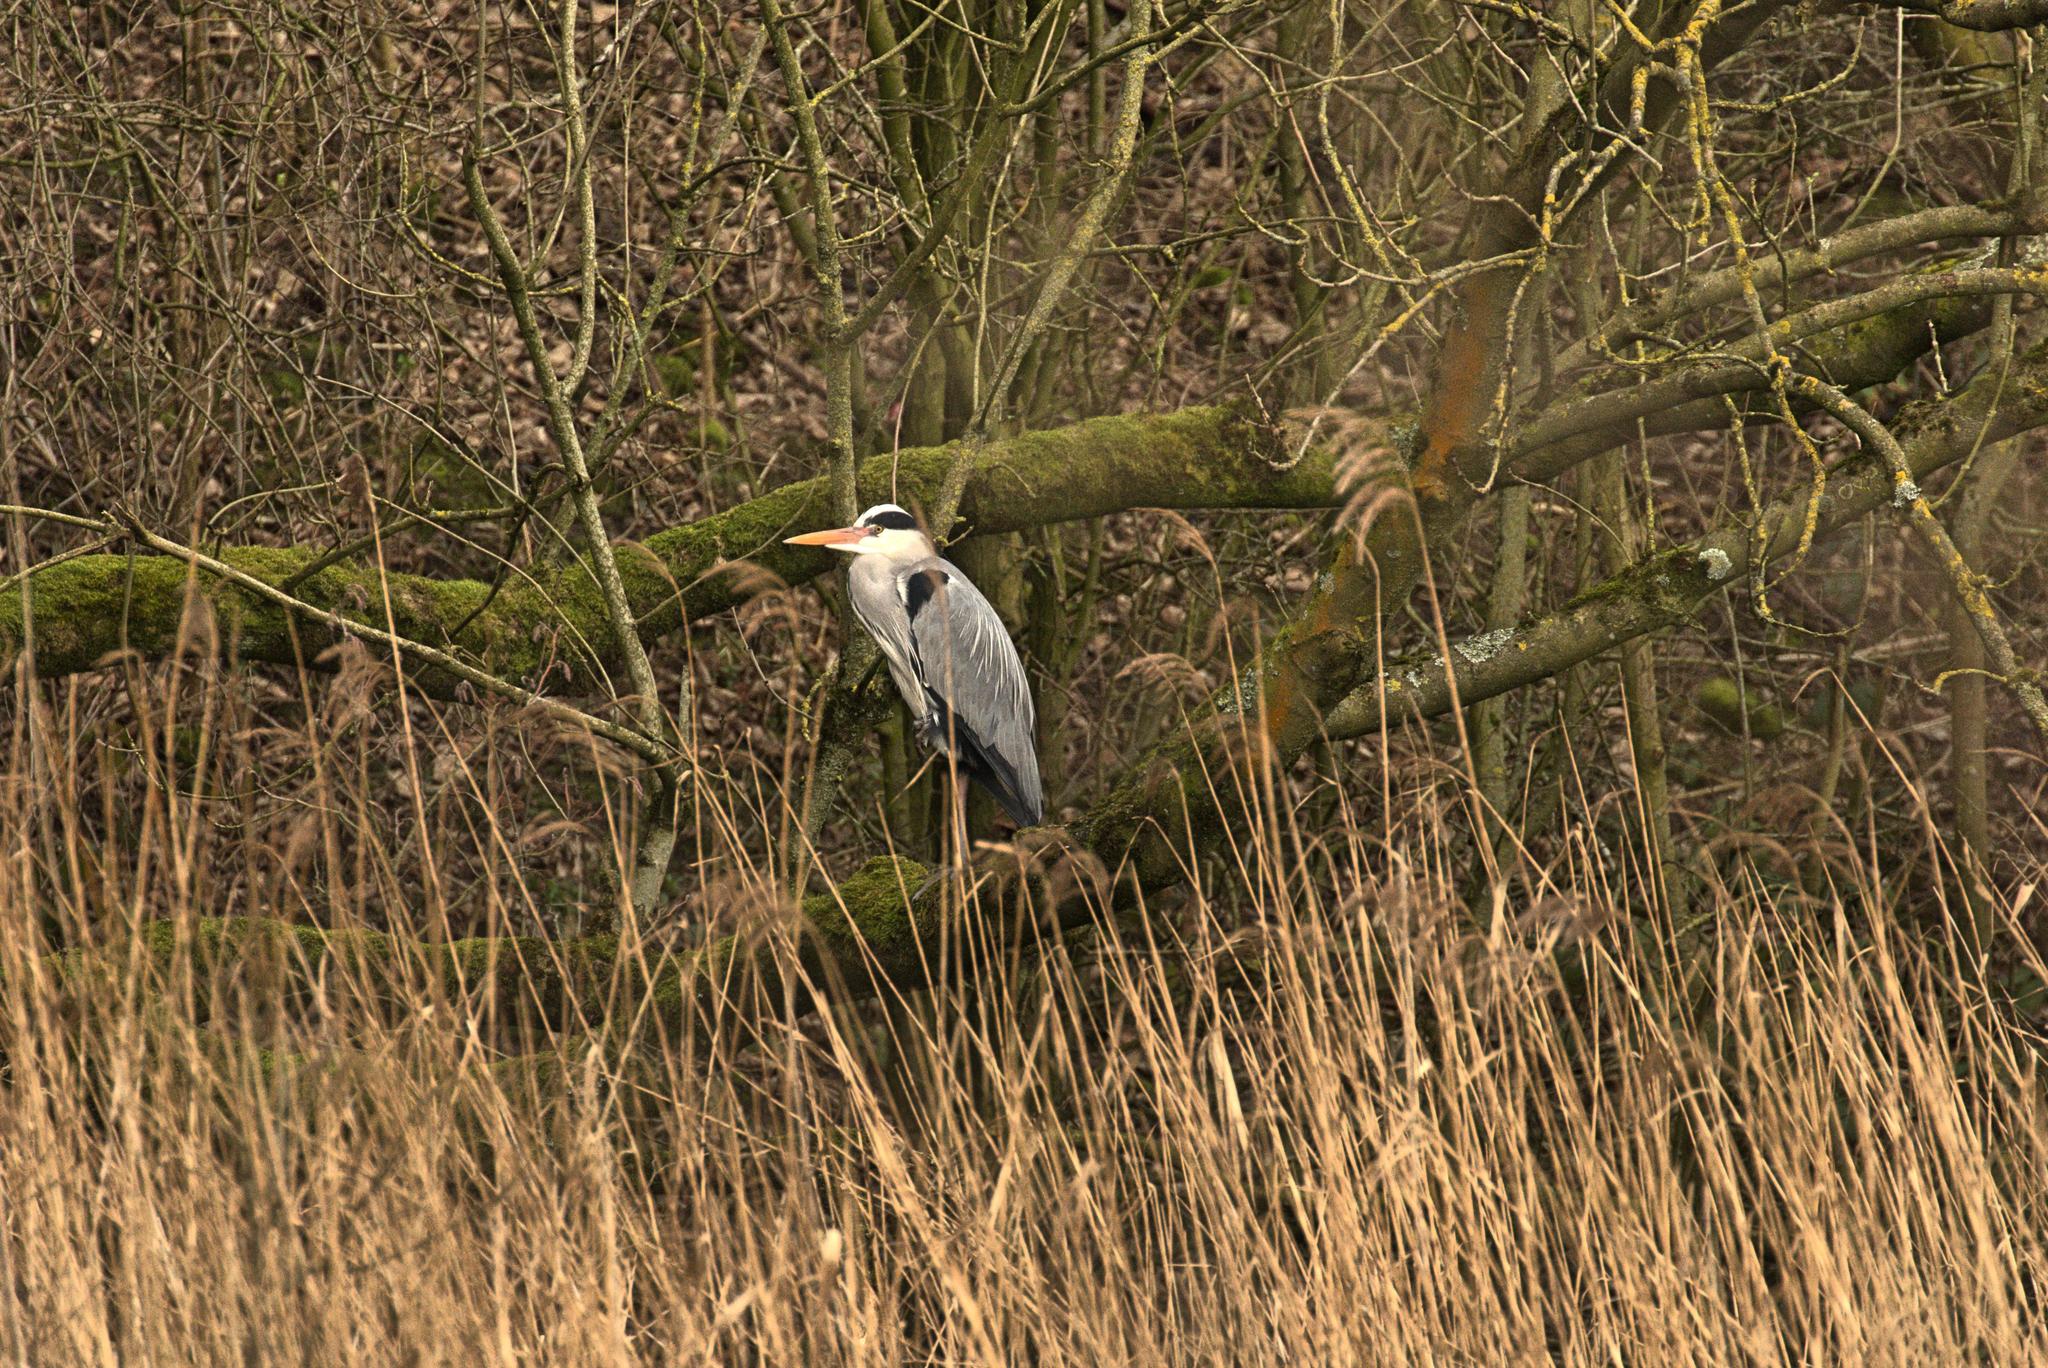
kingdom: Animalia
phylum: Chordata
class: Aves
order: Pelecaniformes
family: Ardeidae
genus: Ardea
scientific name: Ardea cinerea
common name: Grey heron
